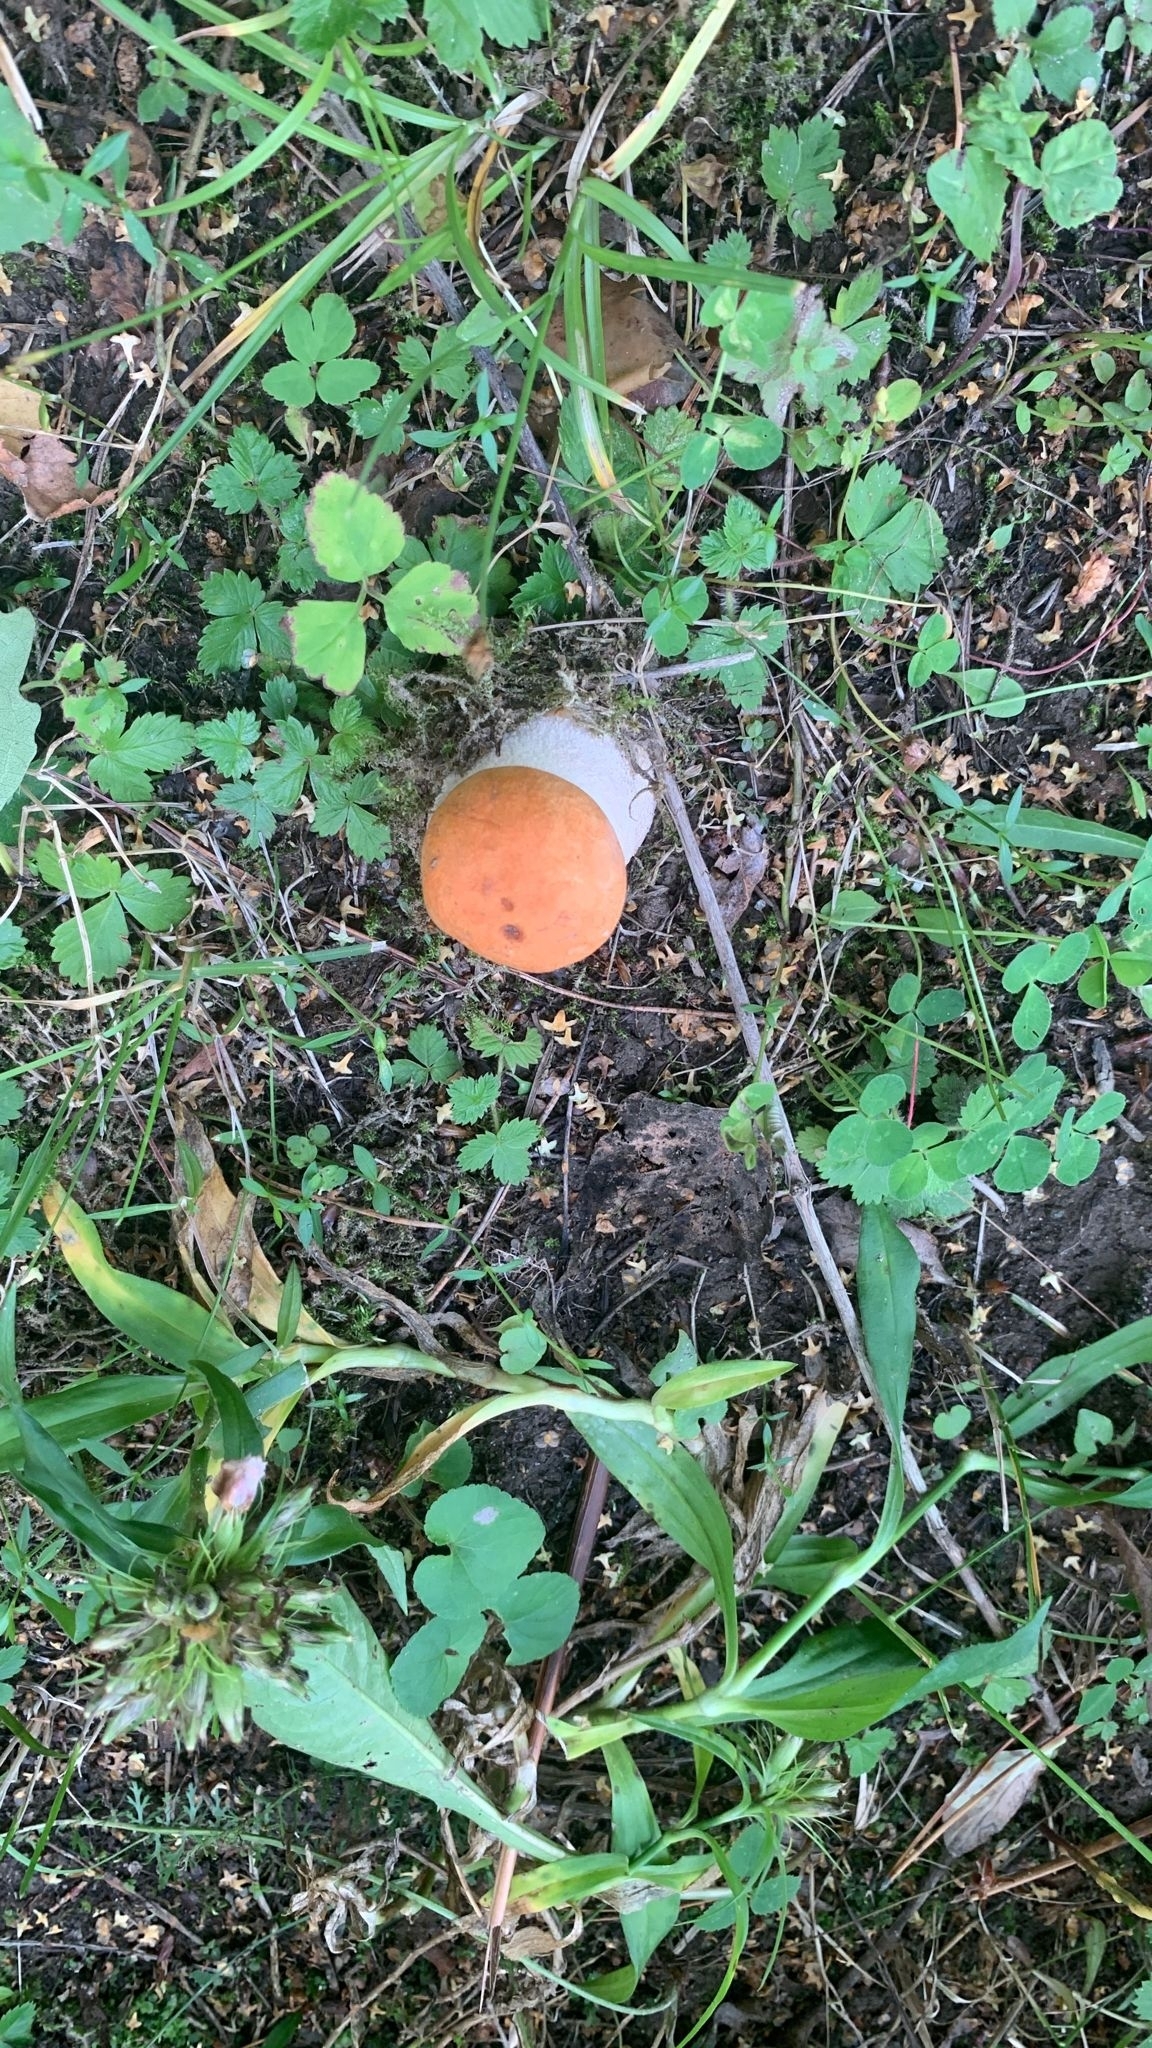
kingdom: Fungi
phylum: Basidiomycota
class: Agaricomycetes
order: Boletales
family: Boletaceae
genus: Leccinum
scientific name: Leccinum albostipitatum
